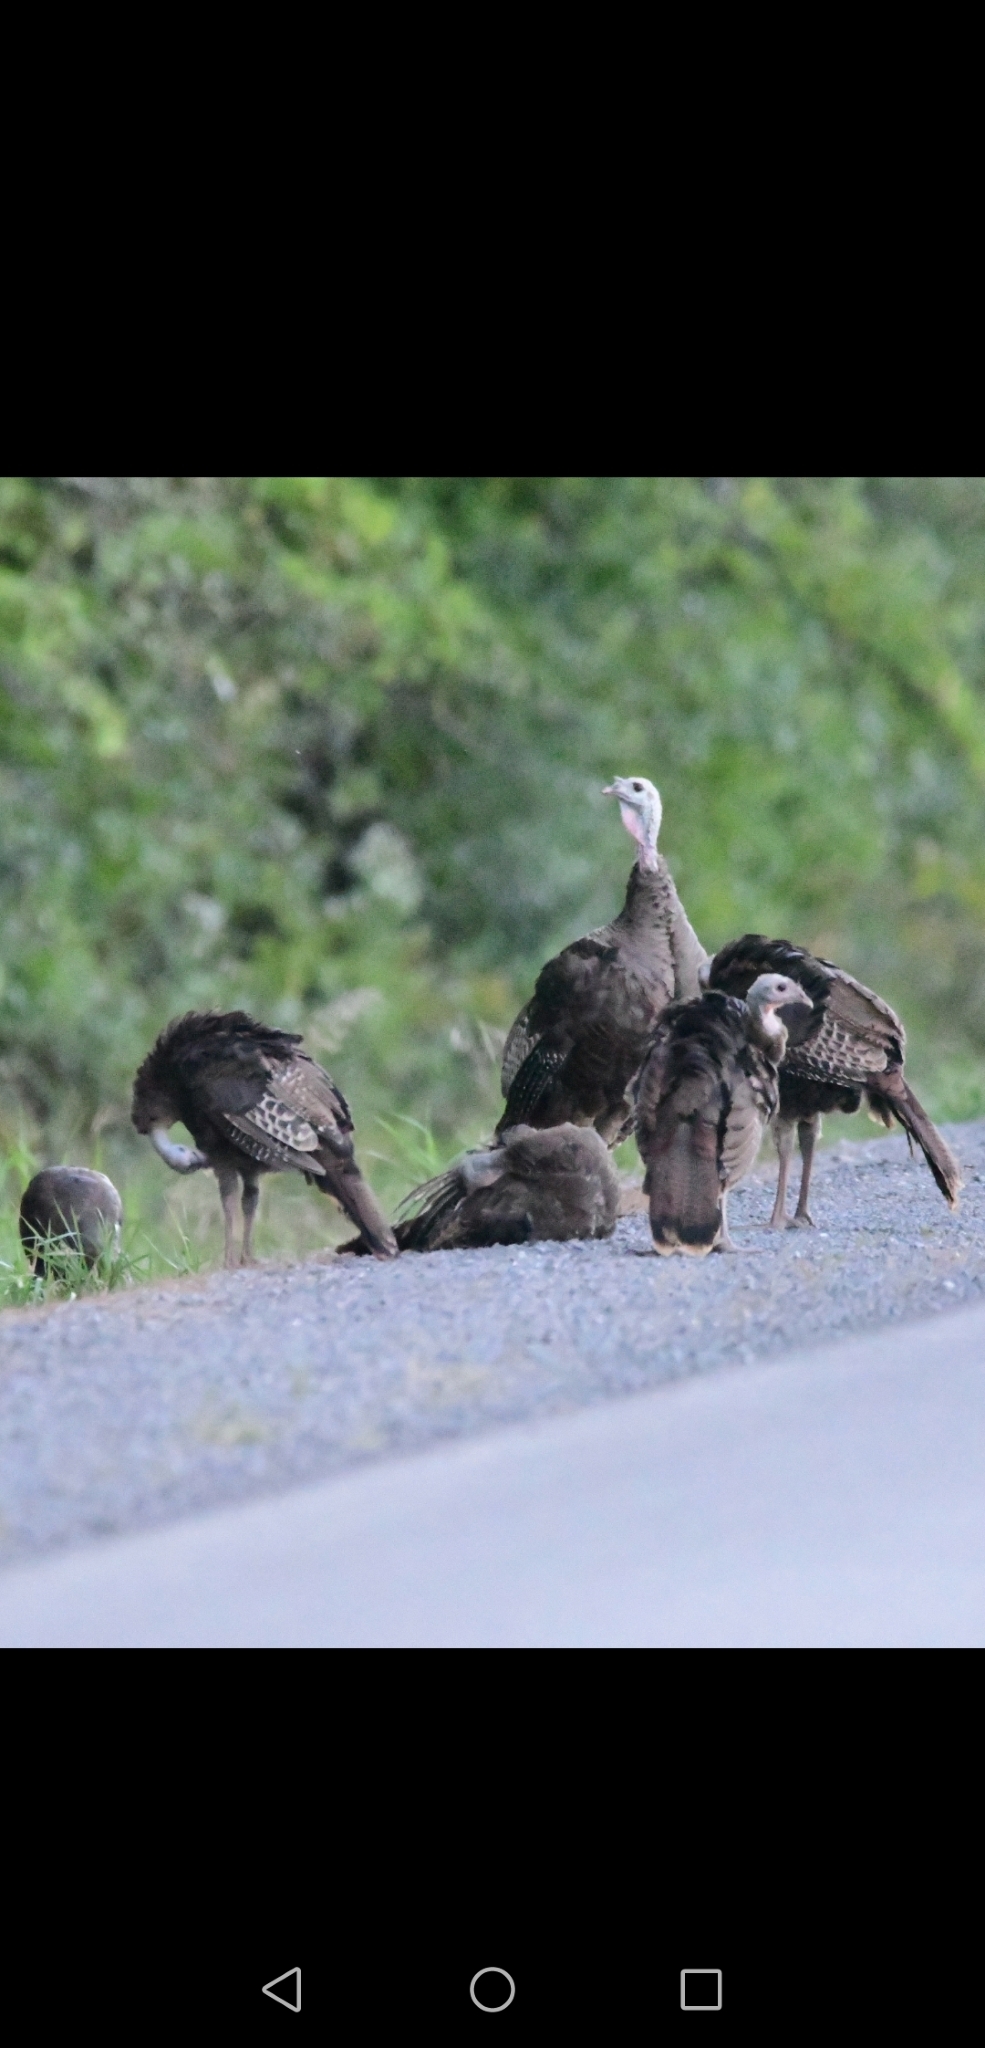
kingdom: Animalia
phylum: Chordata
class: Aves
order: Galliformes
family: Phasianidae
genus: Meleagris
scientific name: Meleagris gallopavo
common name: Wild turkey
